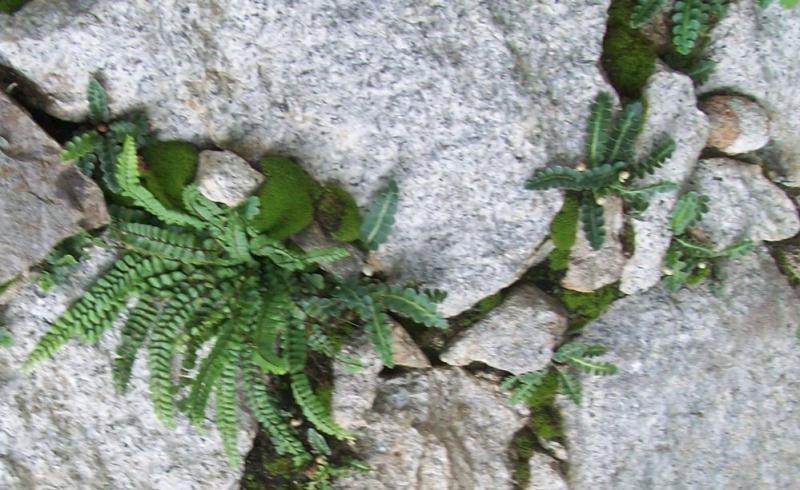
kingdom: Plantae
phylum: Tracheophyta
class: Polypodiopsida
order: Polypodiales
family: Aspleniaceae
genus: Asplenium
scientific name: Asplenium trichomanes
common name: Maidenhair spleenwort
